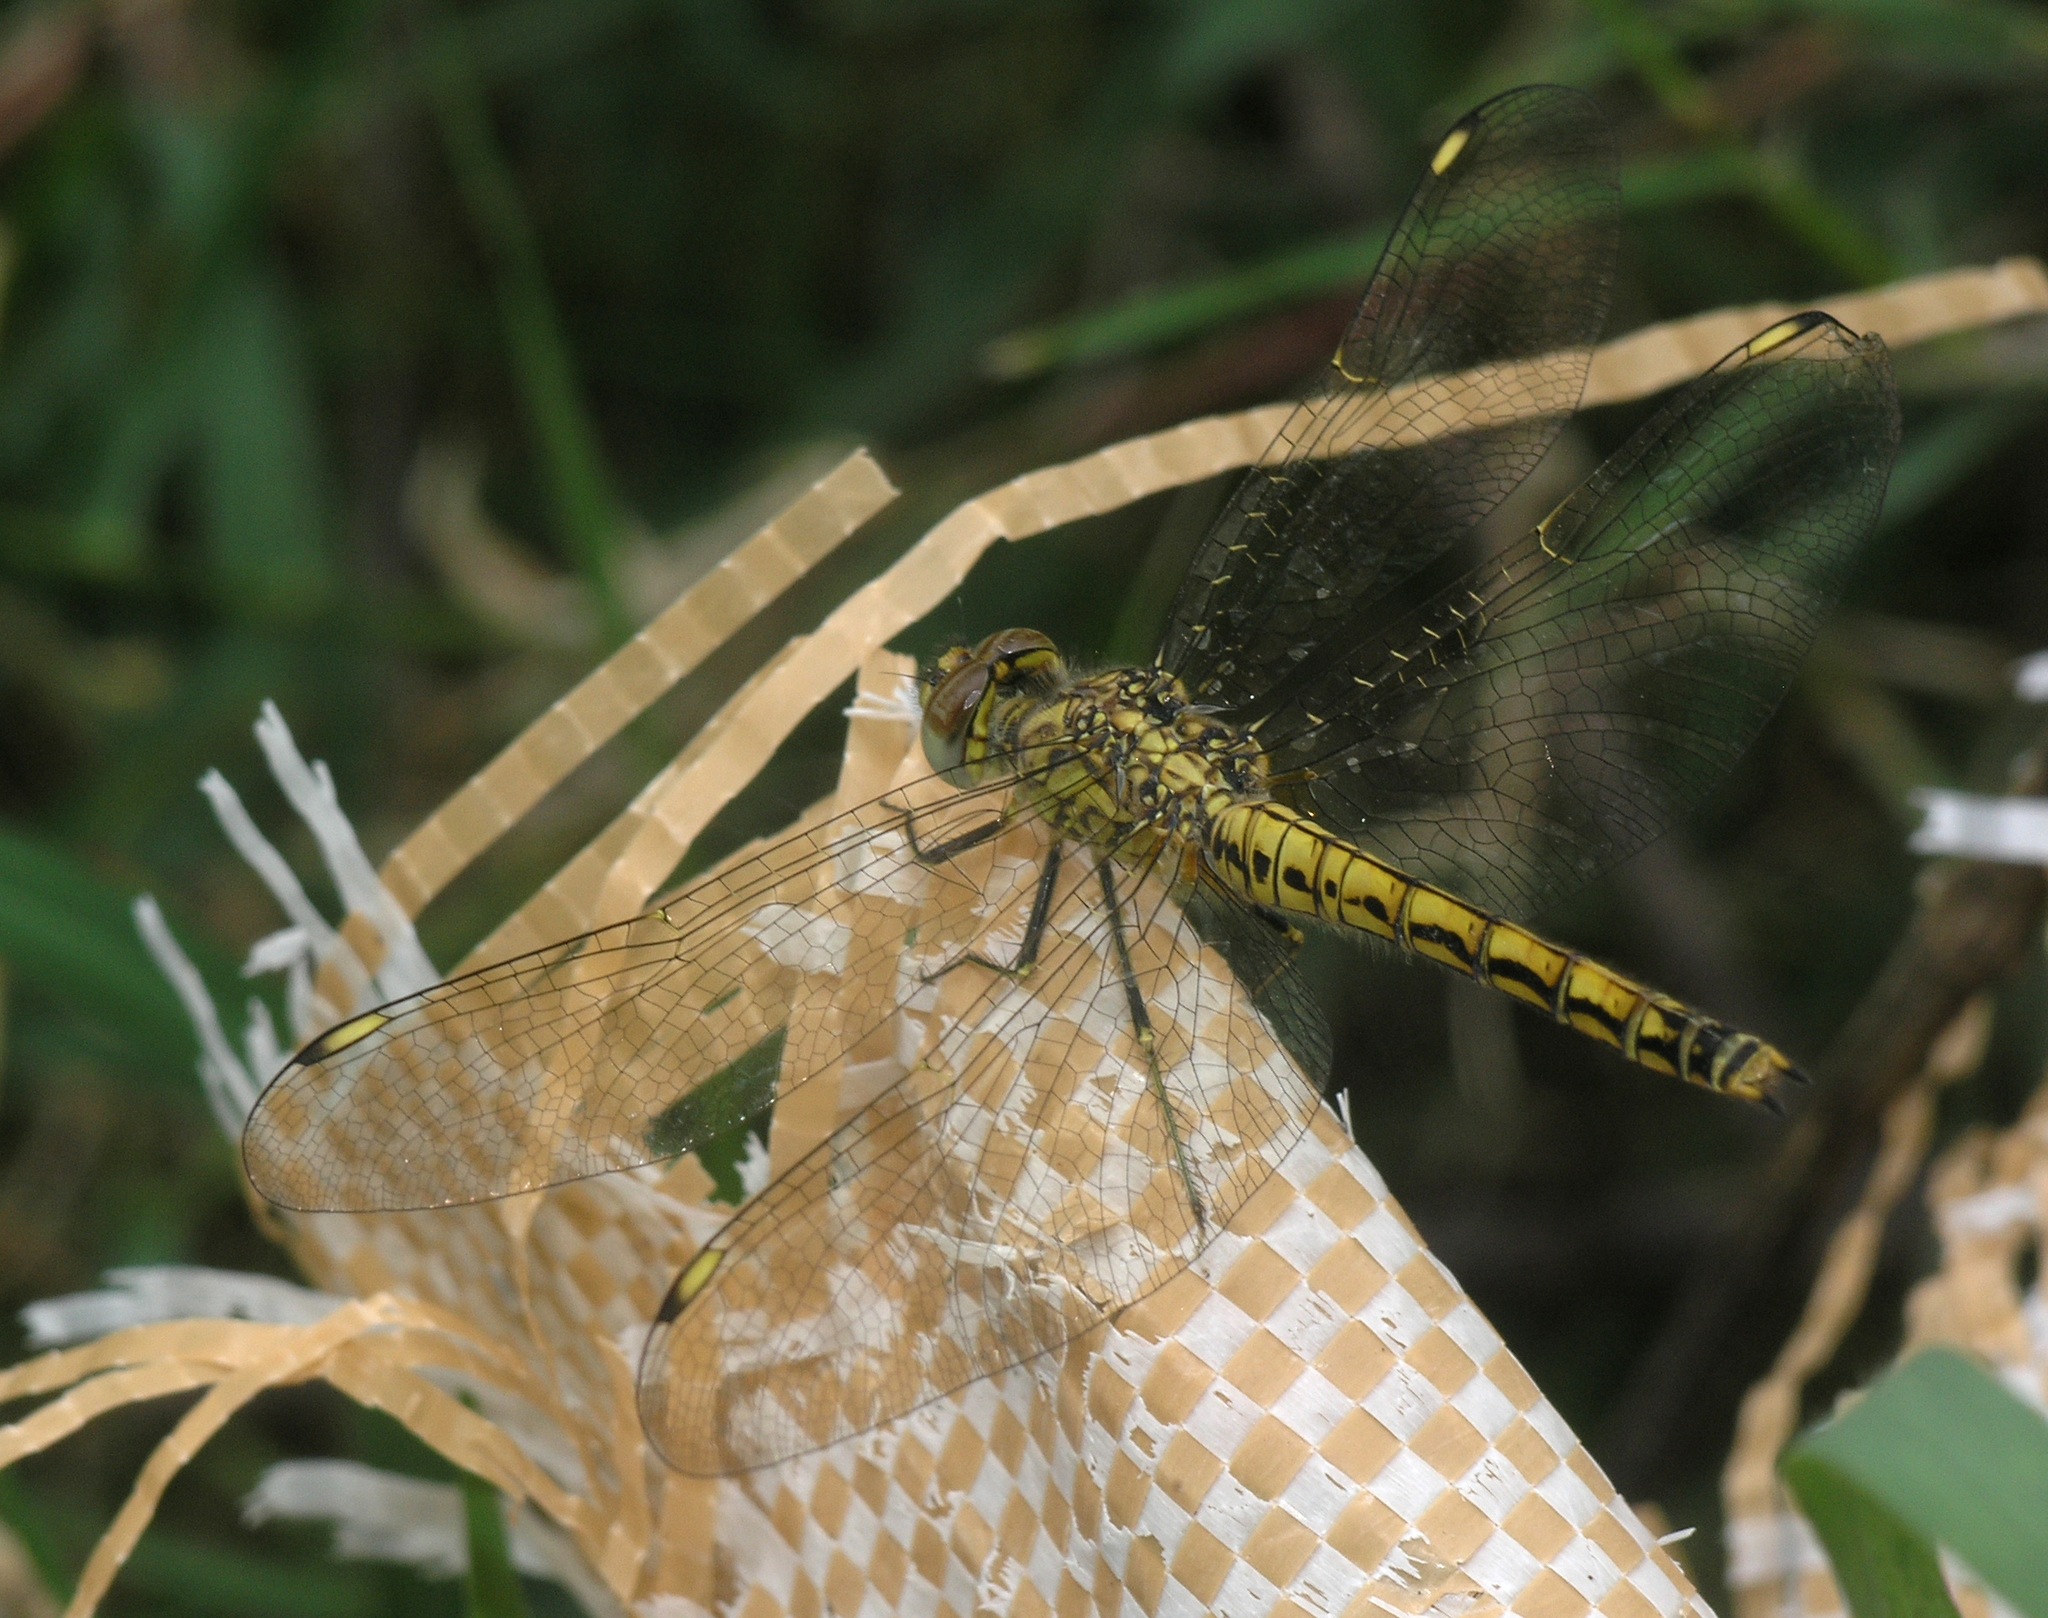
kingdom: Animalia
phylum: Arthropoda
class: Insecta
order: Odonata
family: Libellulidae
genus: Brachythemis
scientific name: Brachythemis leucosticta
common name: Banded groundling
